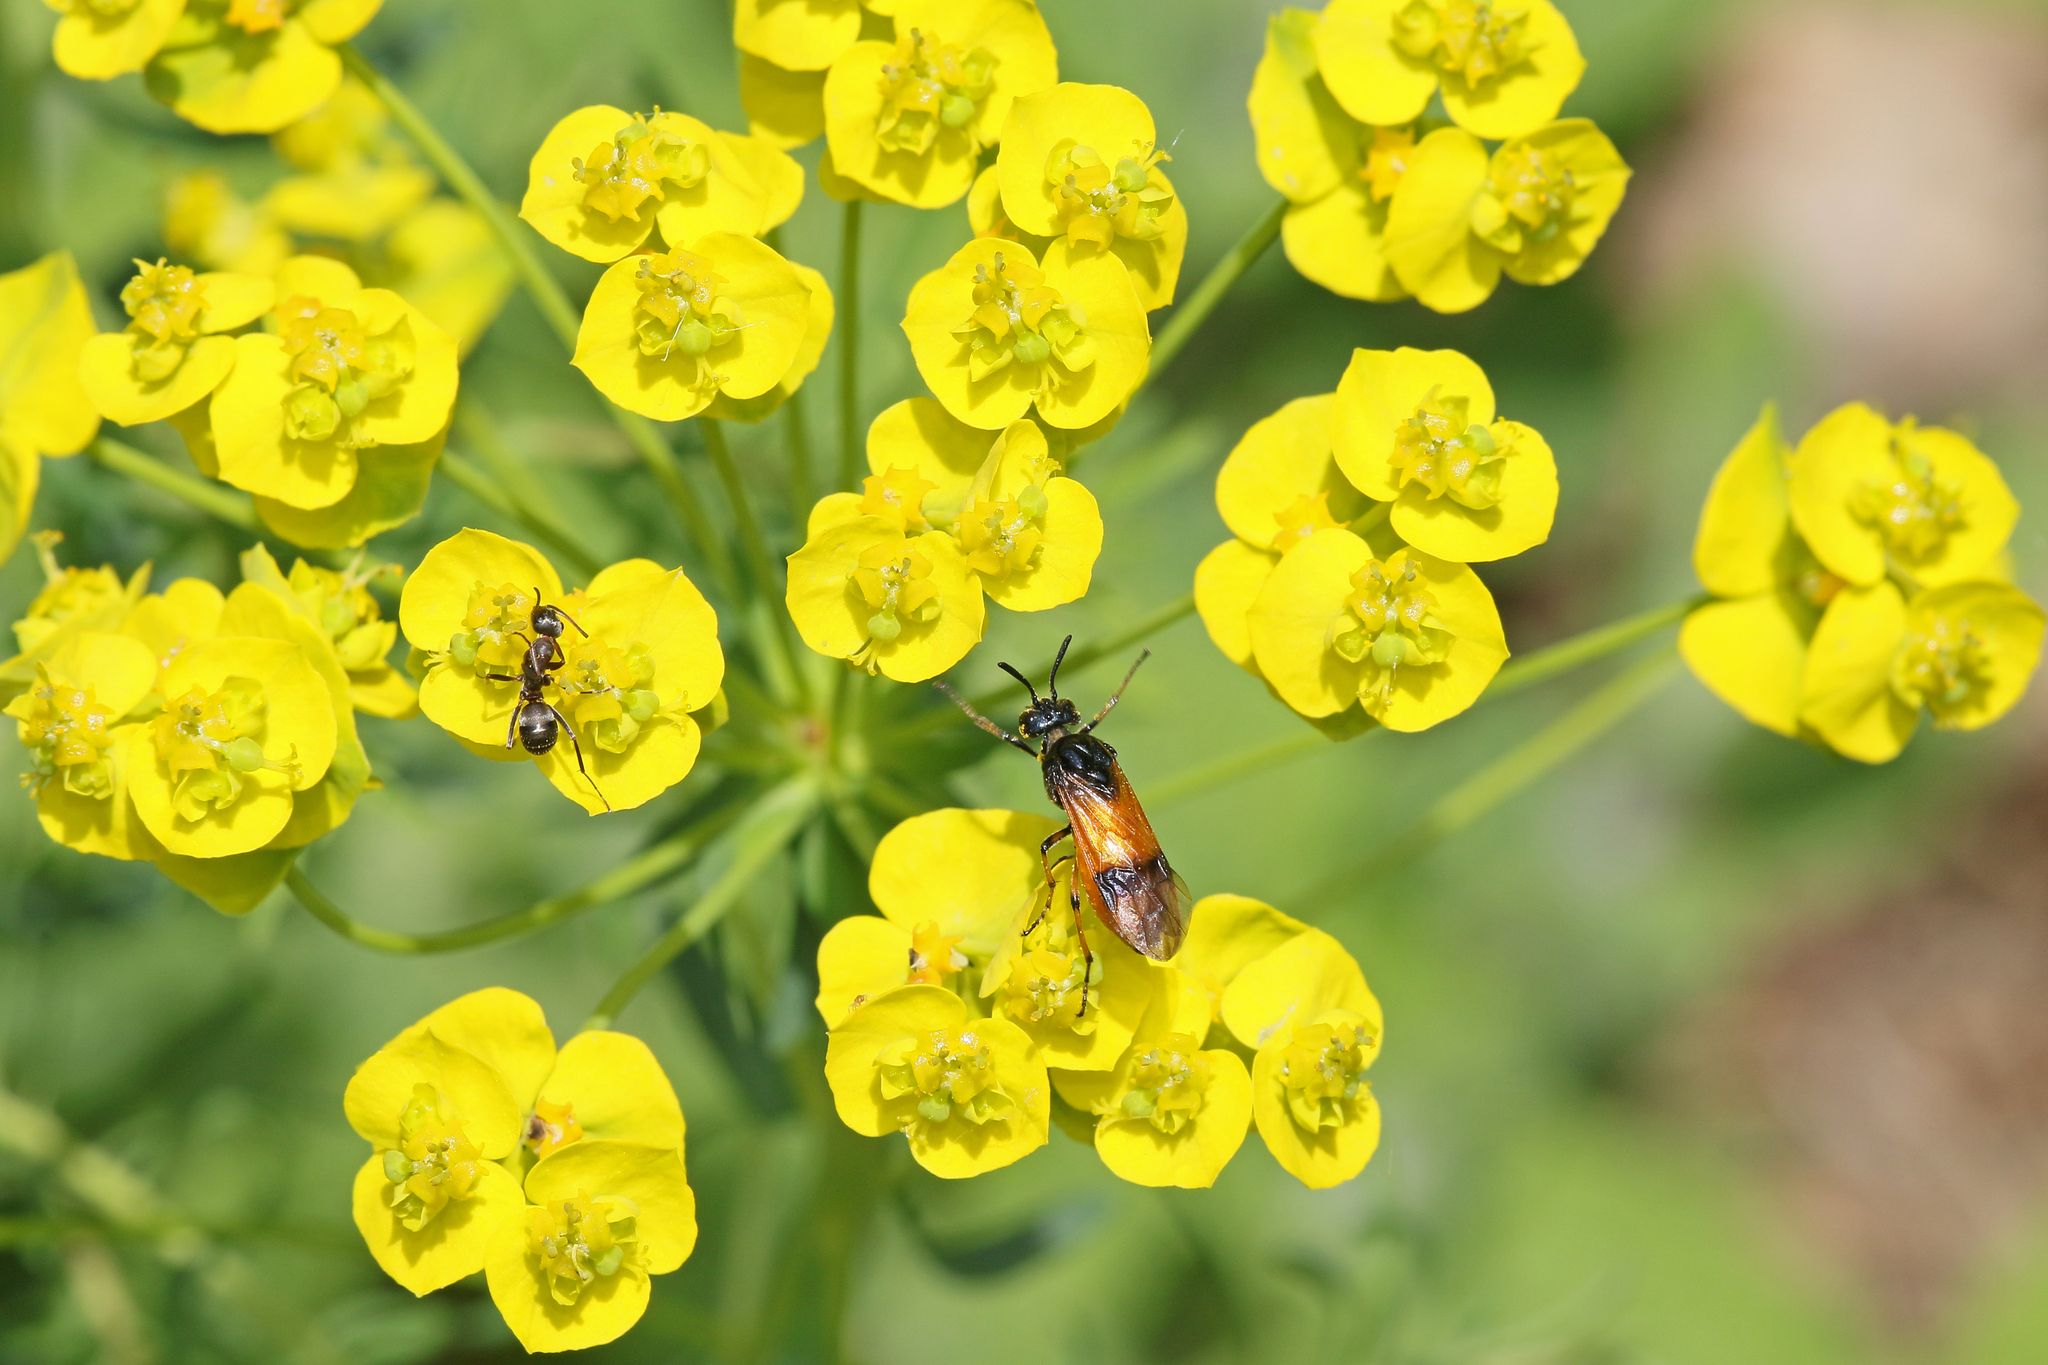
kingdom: Animalia
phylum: Arthropoda
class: Insecta
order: Hymenoptera
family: Argidae
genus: Arge
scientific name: Arge cyanocrocea
